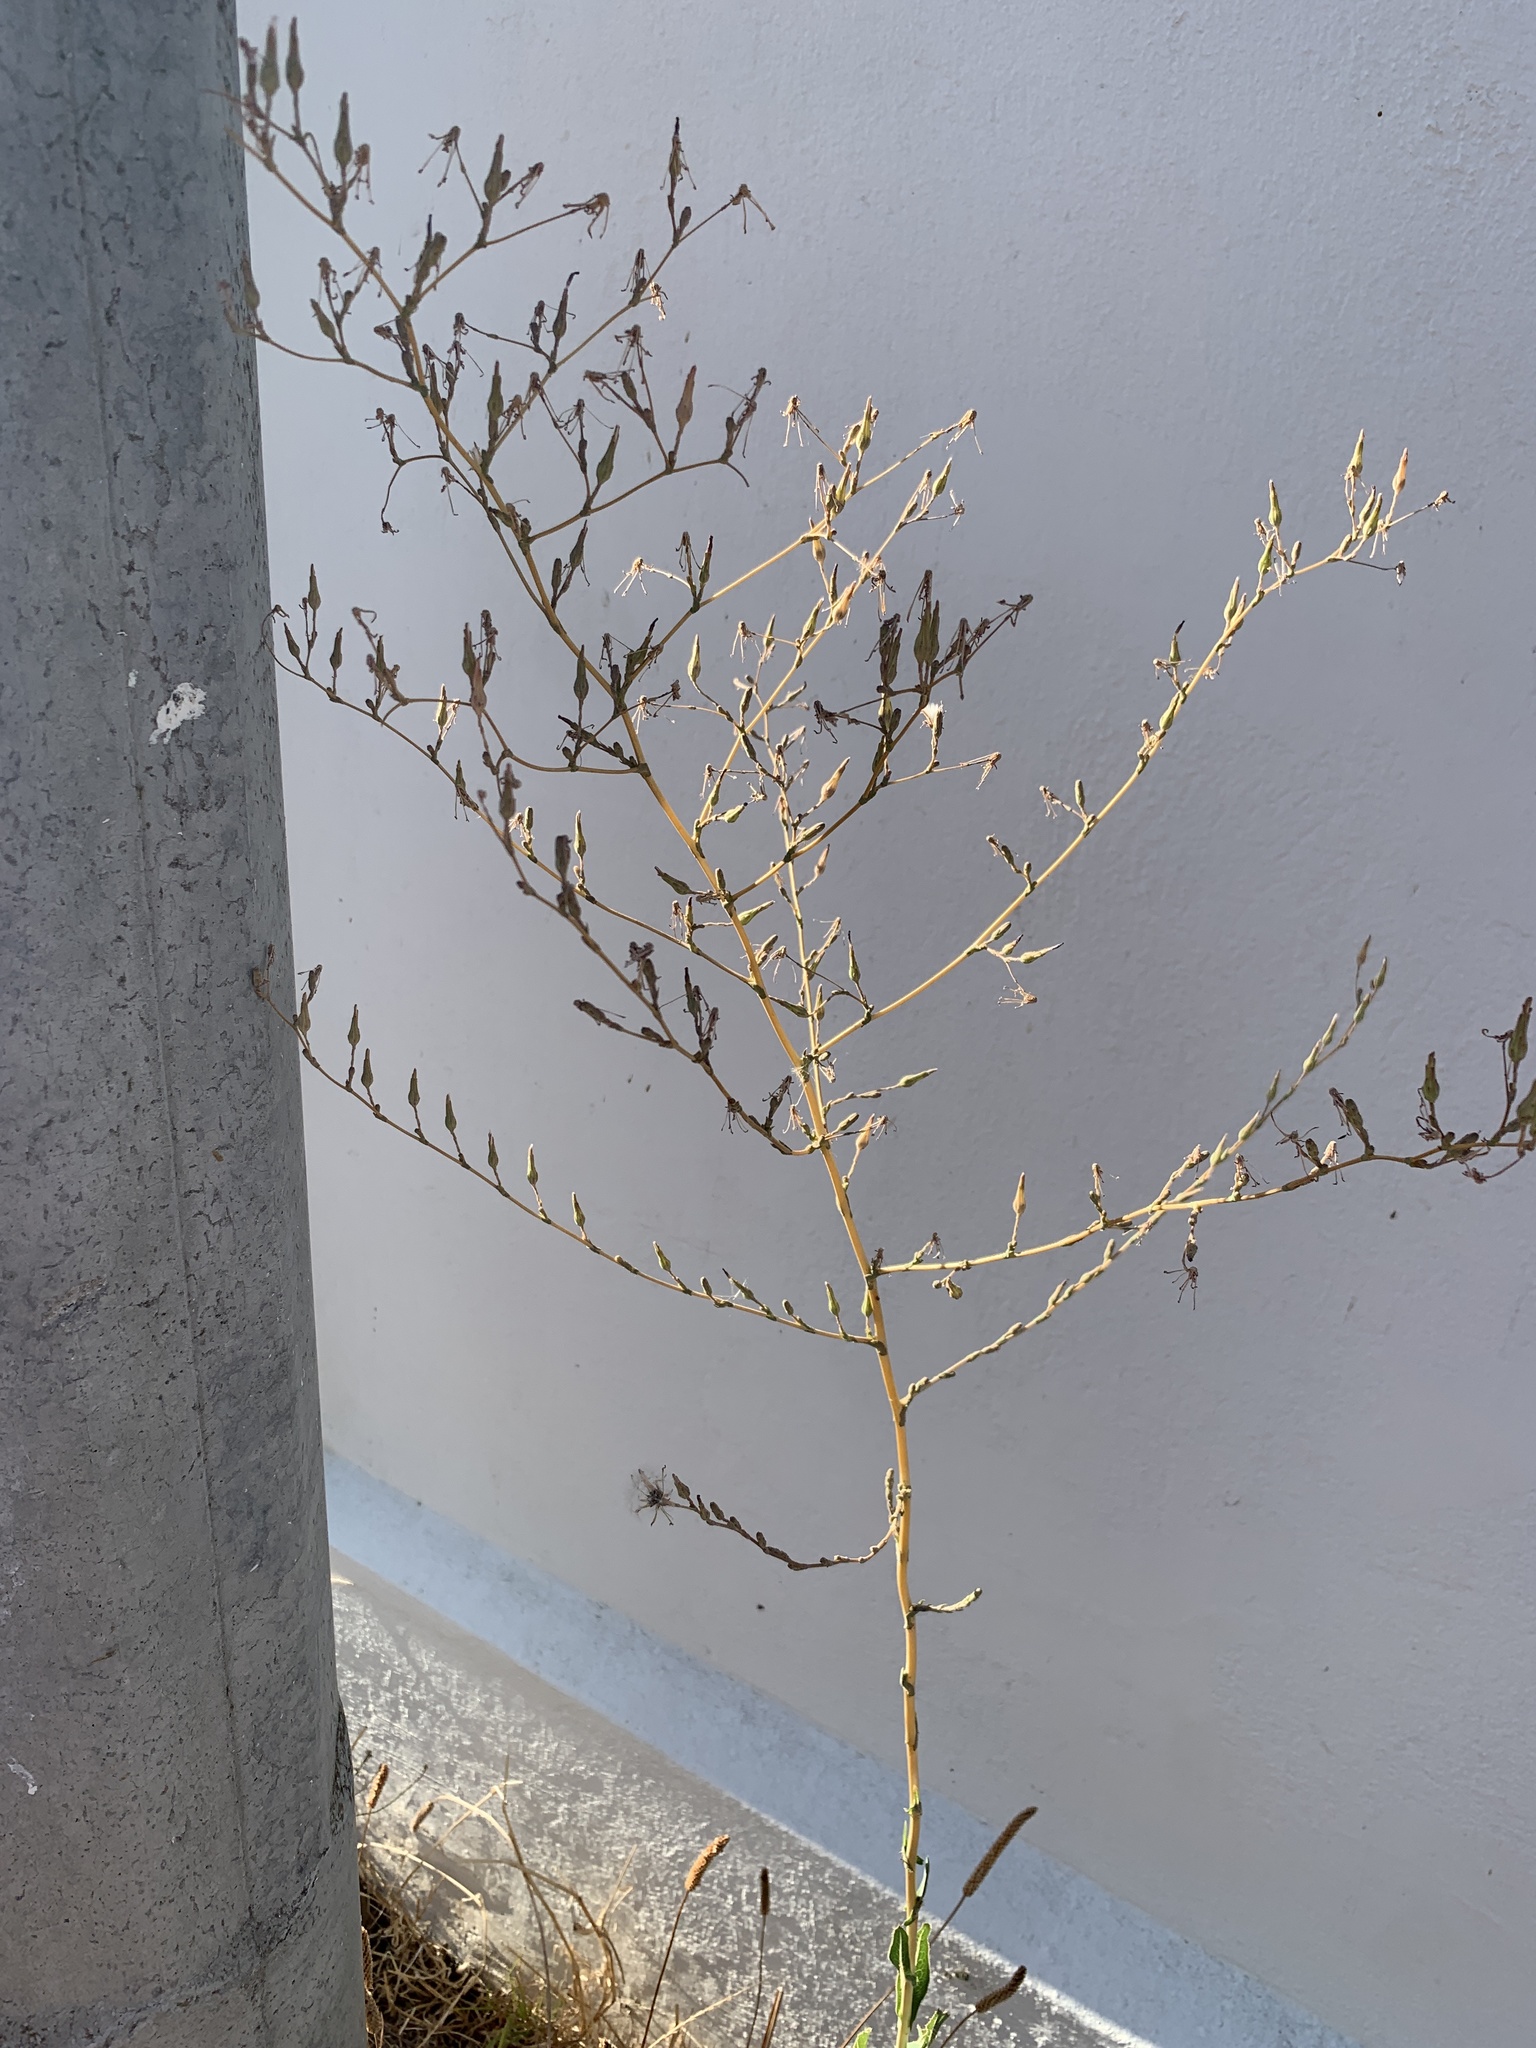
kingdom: Plantae
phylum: Tracheophyta
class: Magnoliopsida
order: Asterales
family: Asteraceae
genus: Lactuca
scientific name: Lactuca serriola
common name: Prickly lettuce
